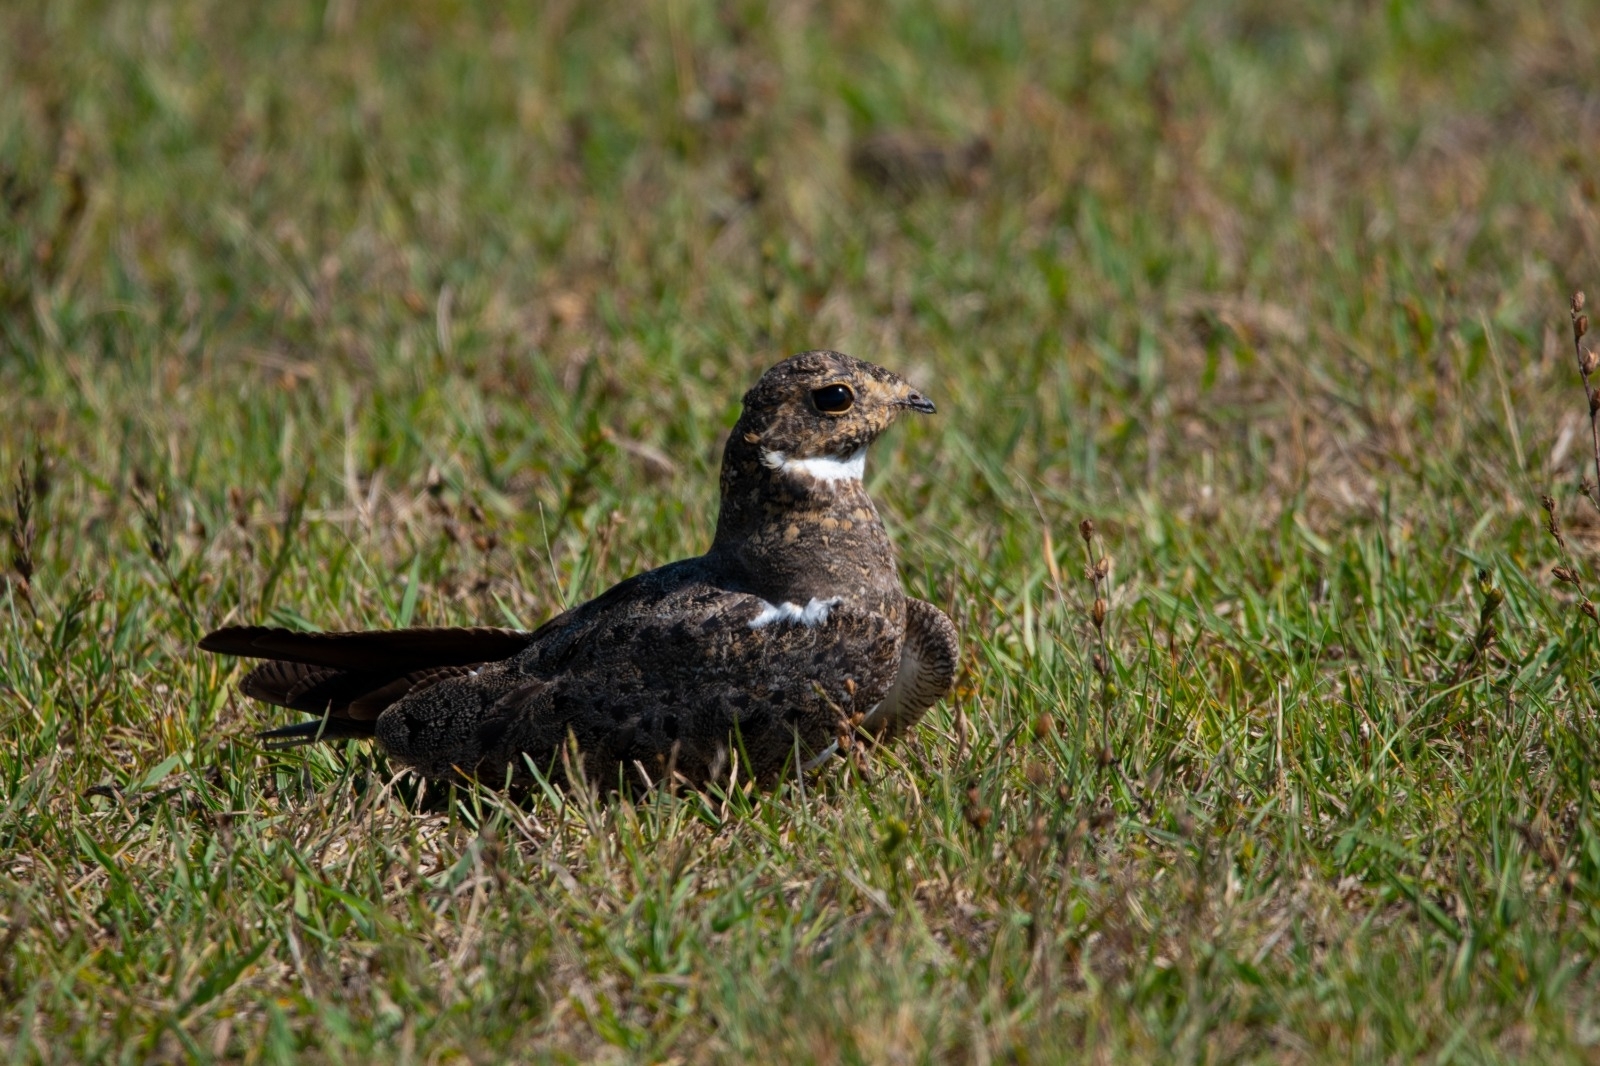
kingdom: Animalia
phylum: Chordata
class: Aves
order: Caprimulgiformes
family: Caprimulgidae
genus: Chordeiles
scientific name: Chordeiles nacunda
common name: Nacunda nighthawk
